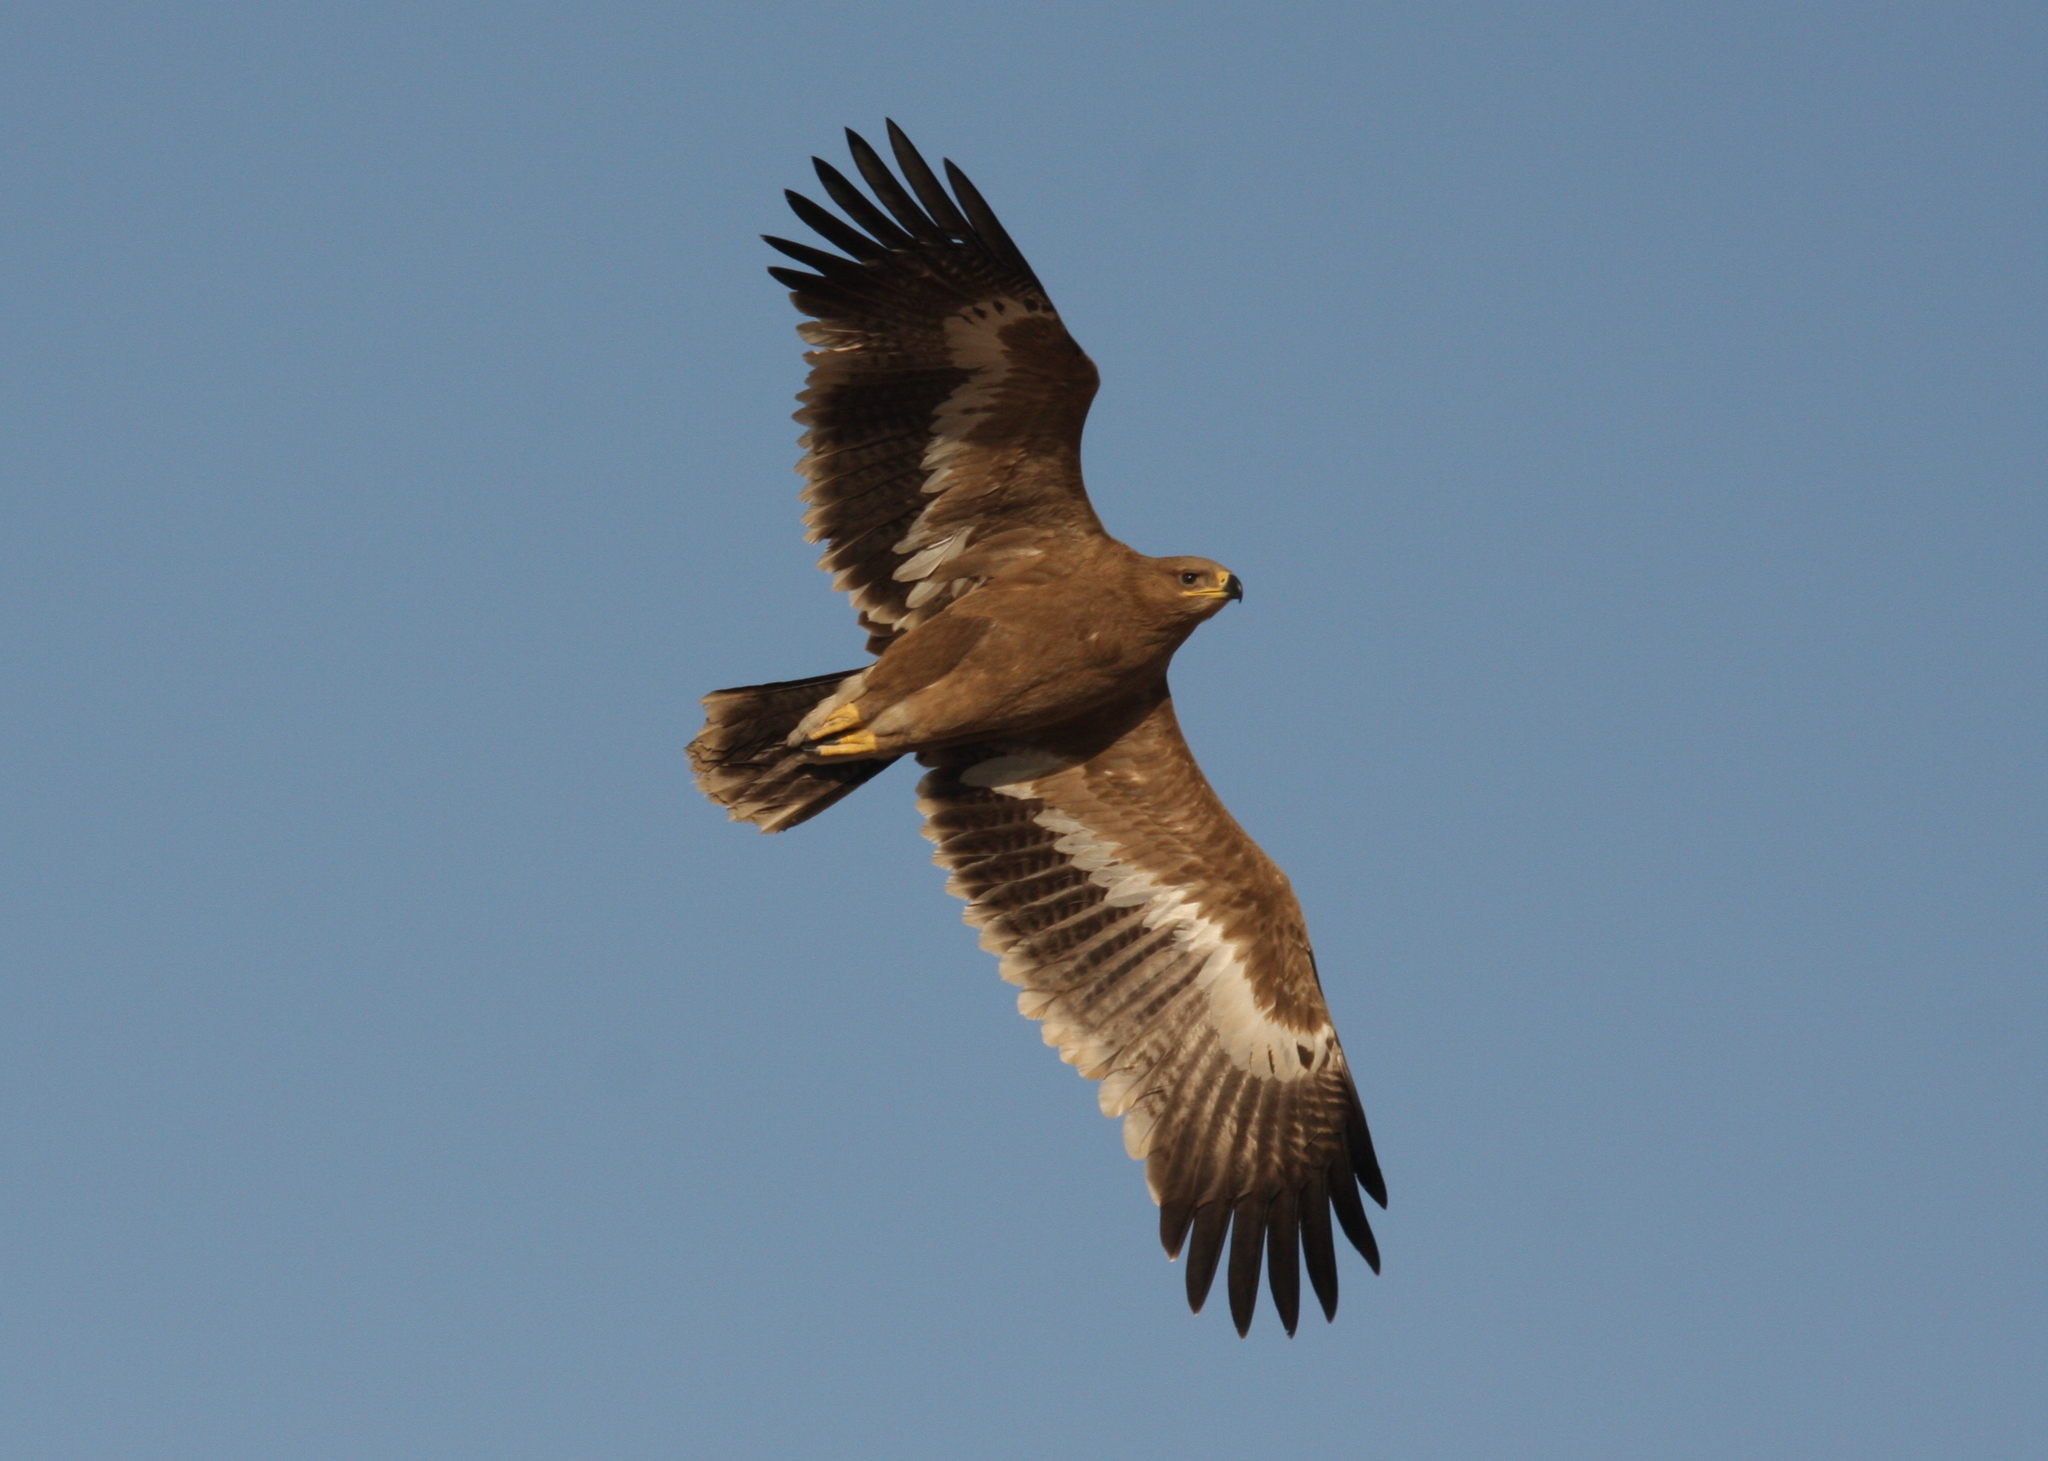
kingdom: Animalia
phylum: Chordata
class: Aves
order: Accipitriformes
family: Accipitridae
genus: Aquila
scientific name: Aquila nipalensis
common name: Steppe eagle
